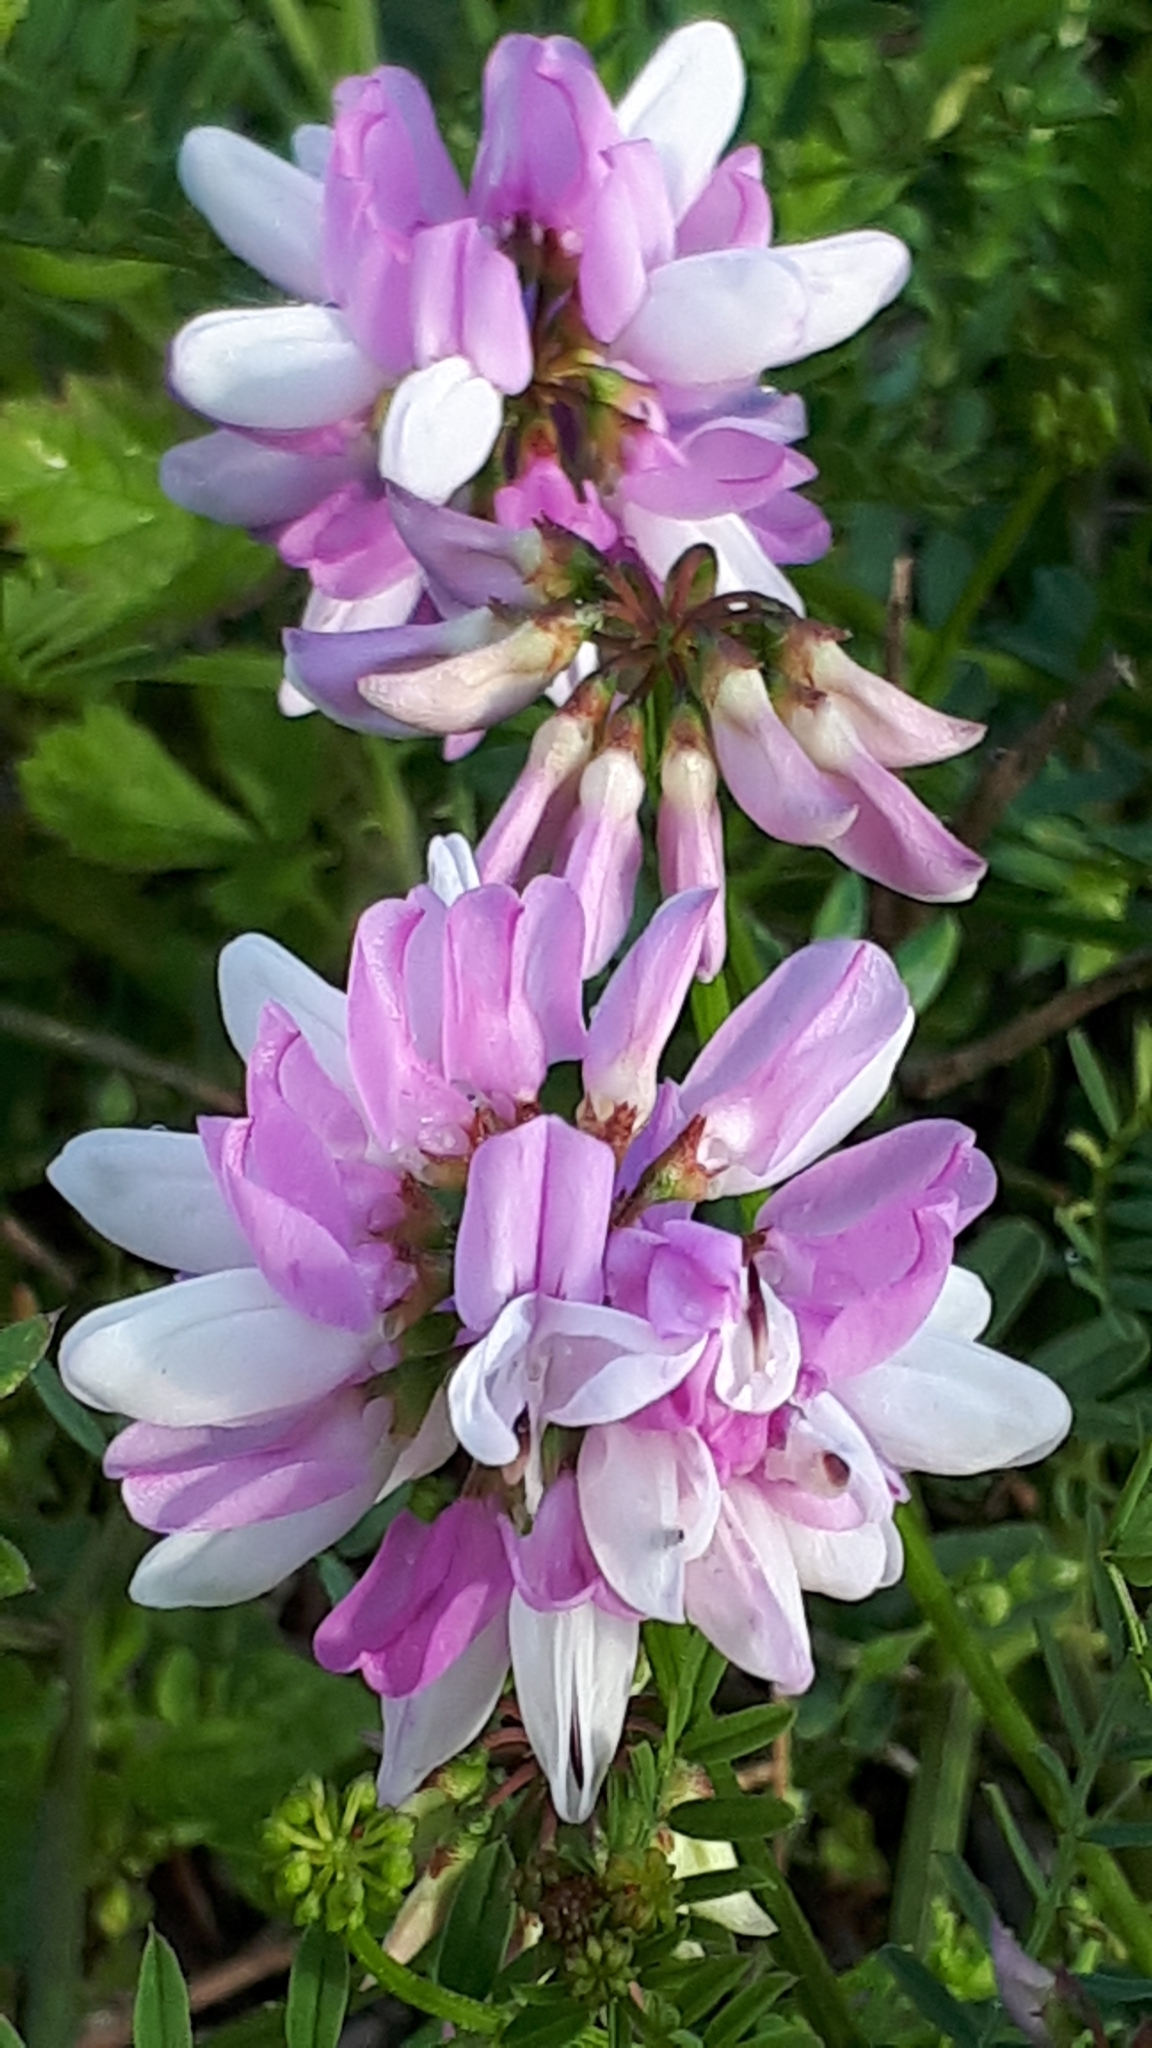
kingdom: Plantae
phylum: Tracheophyta
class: Magnoliopsida
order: Fabales
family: Fabaceae
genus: Coronilla
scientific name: Coronilla varia
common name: Crownvetch
